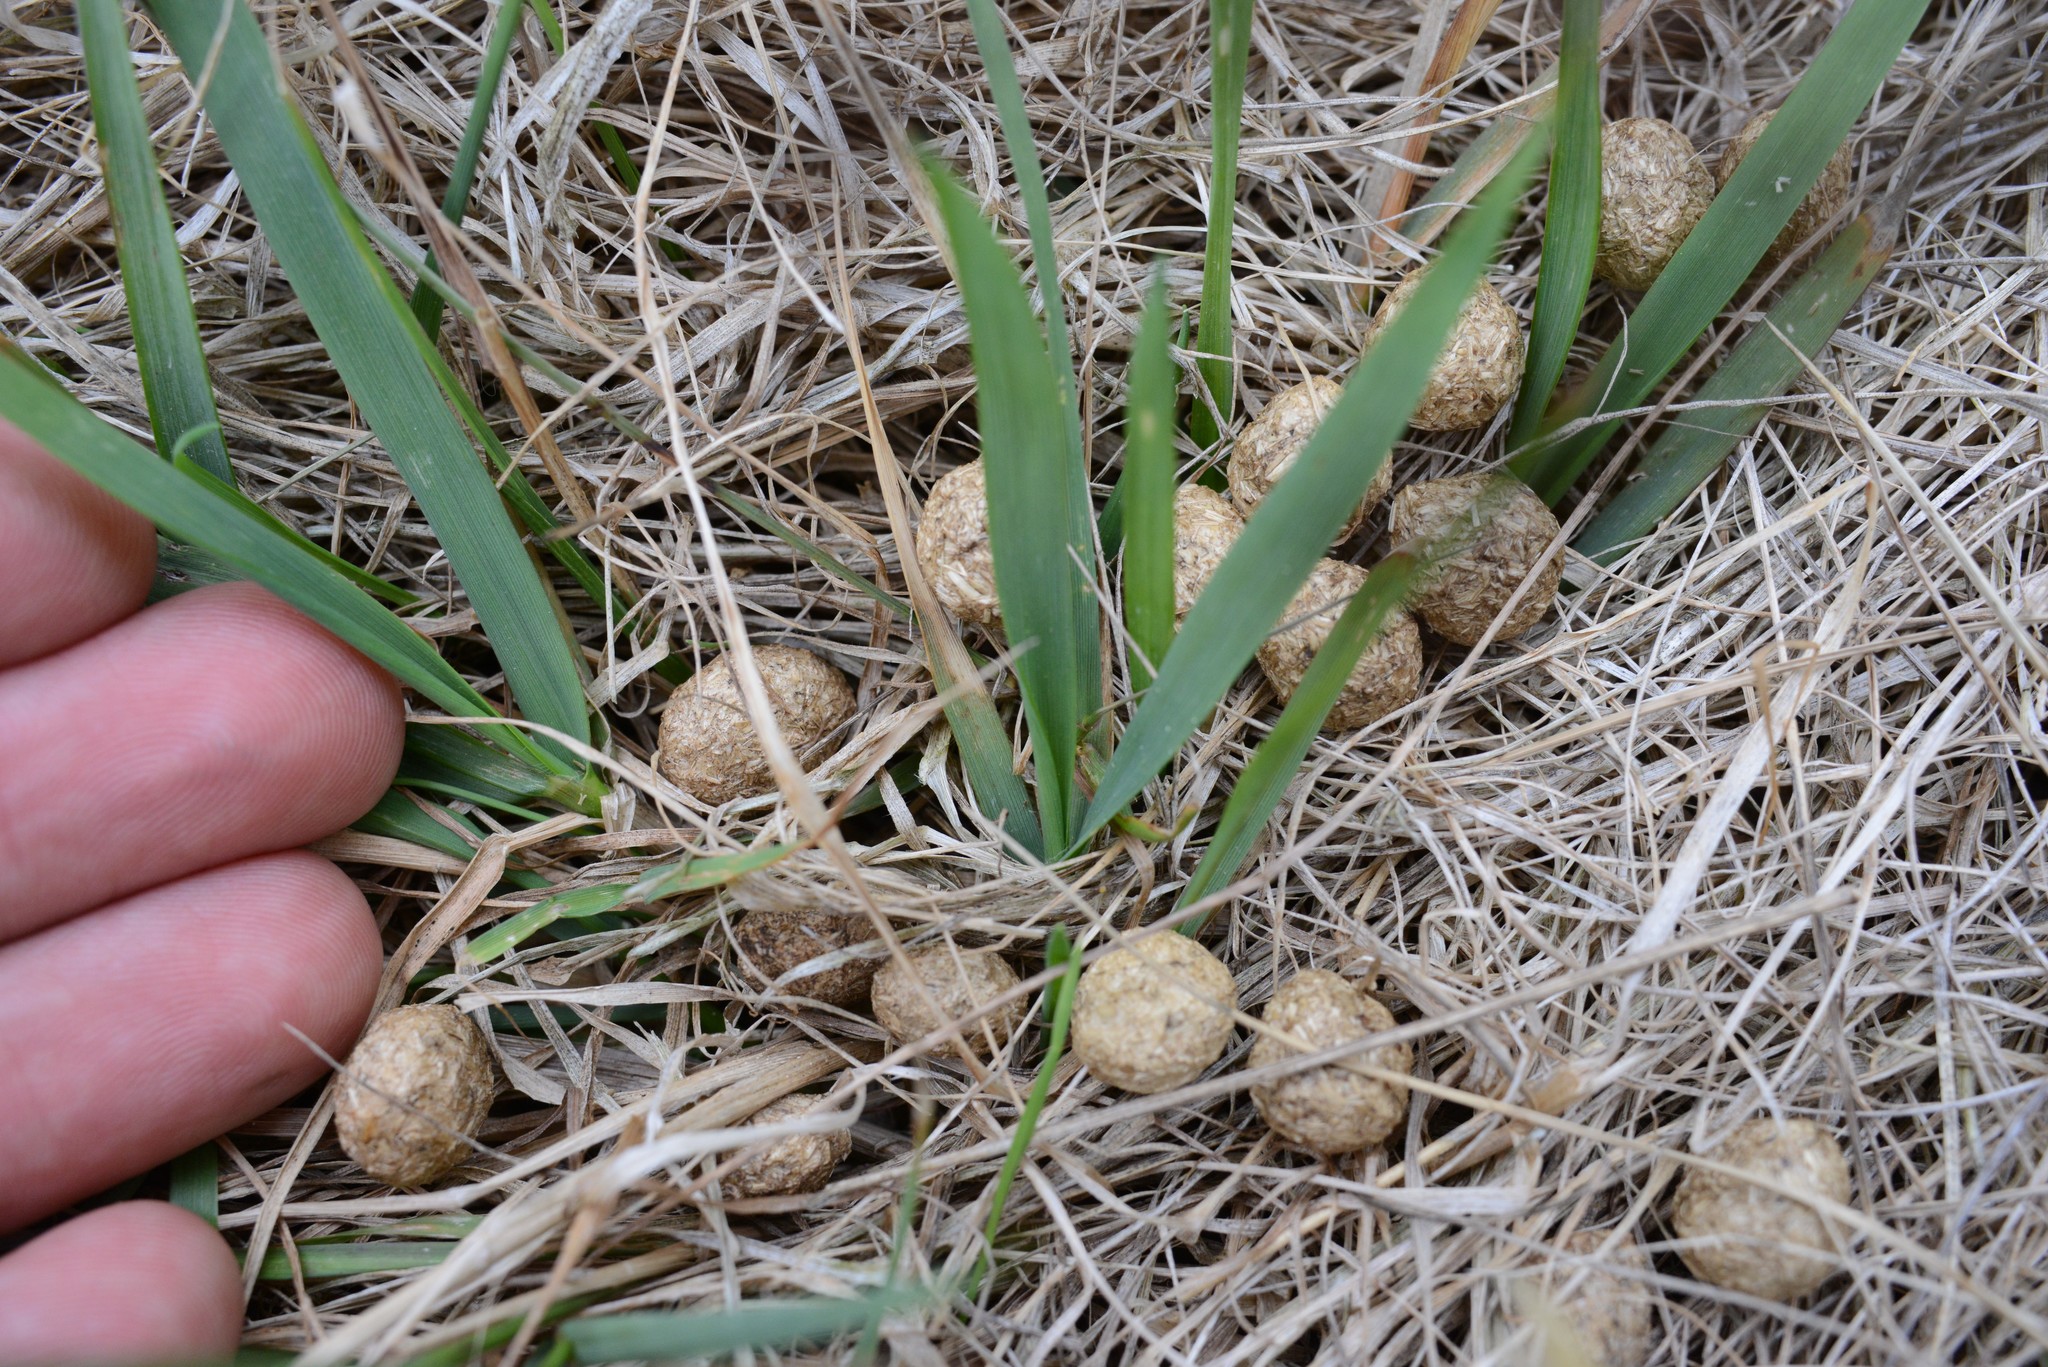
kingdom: Animalia
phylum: Chordata
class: Mammalia
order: Lagomorpha
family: Leporidae
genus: Lepus
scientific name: Lepus europaeus
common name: European hare
